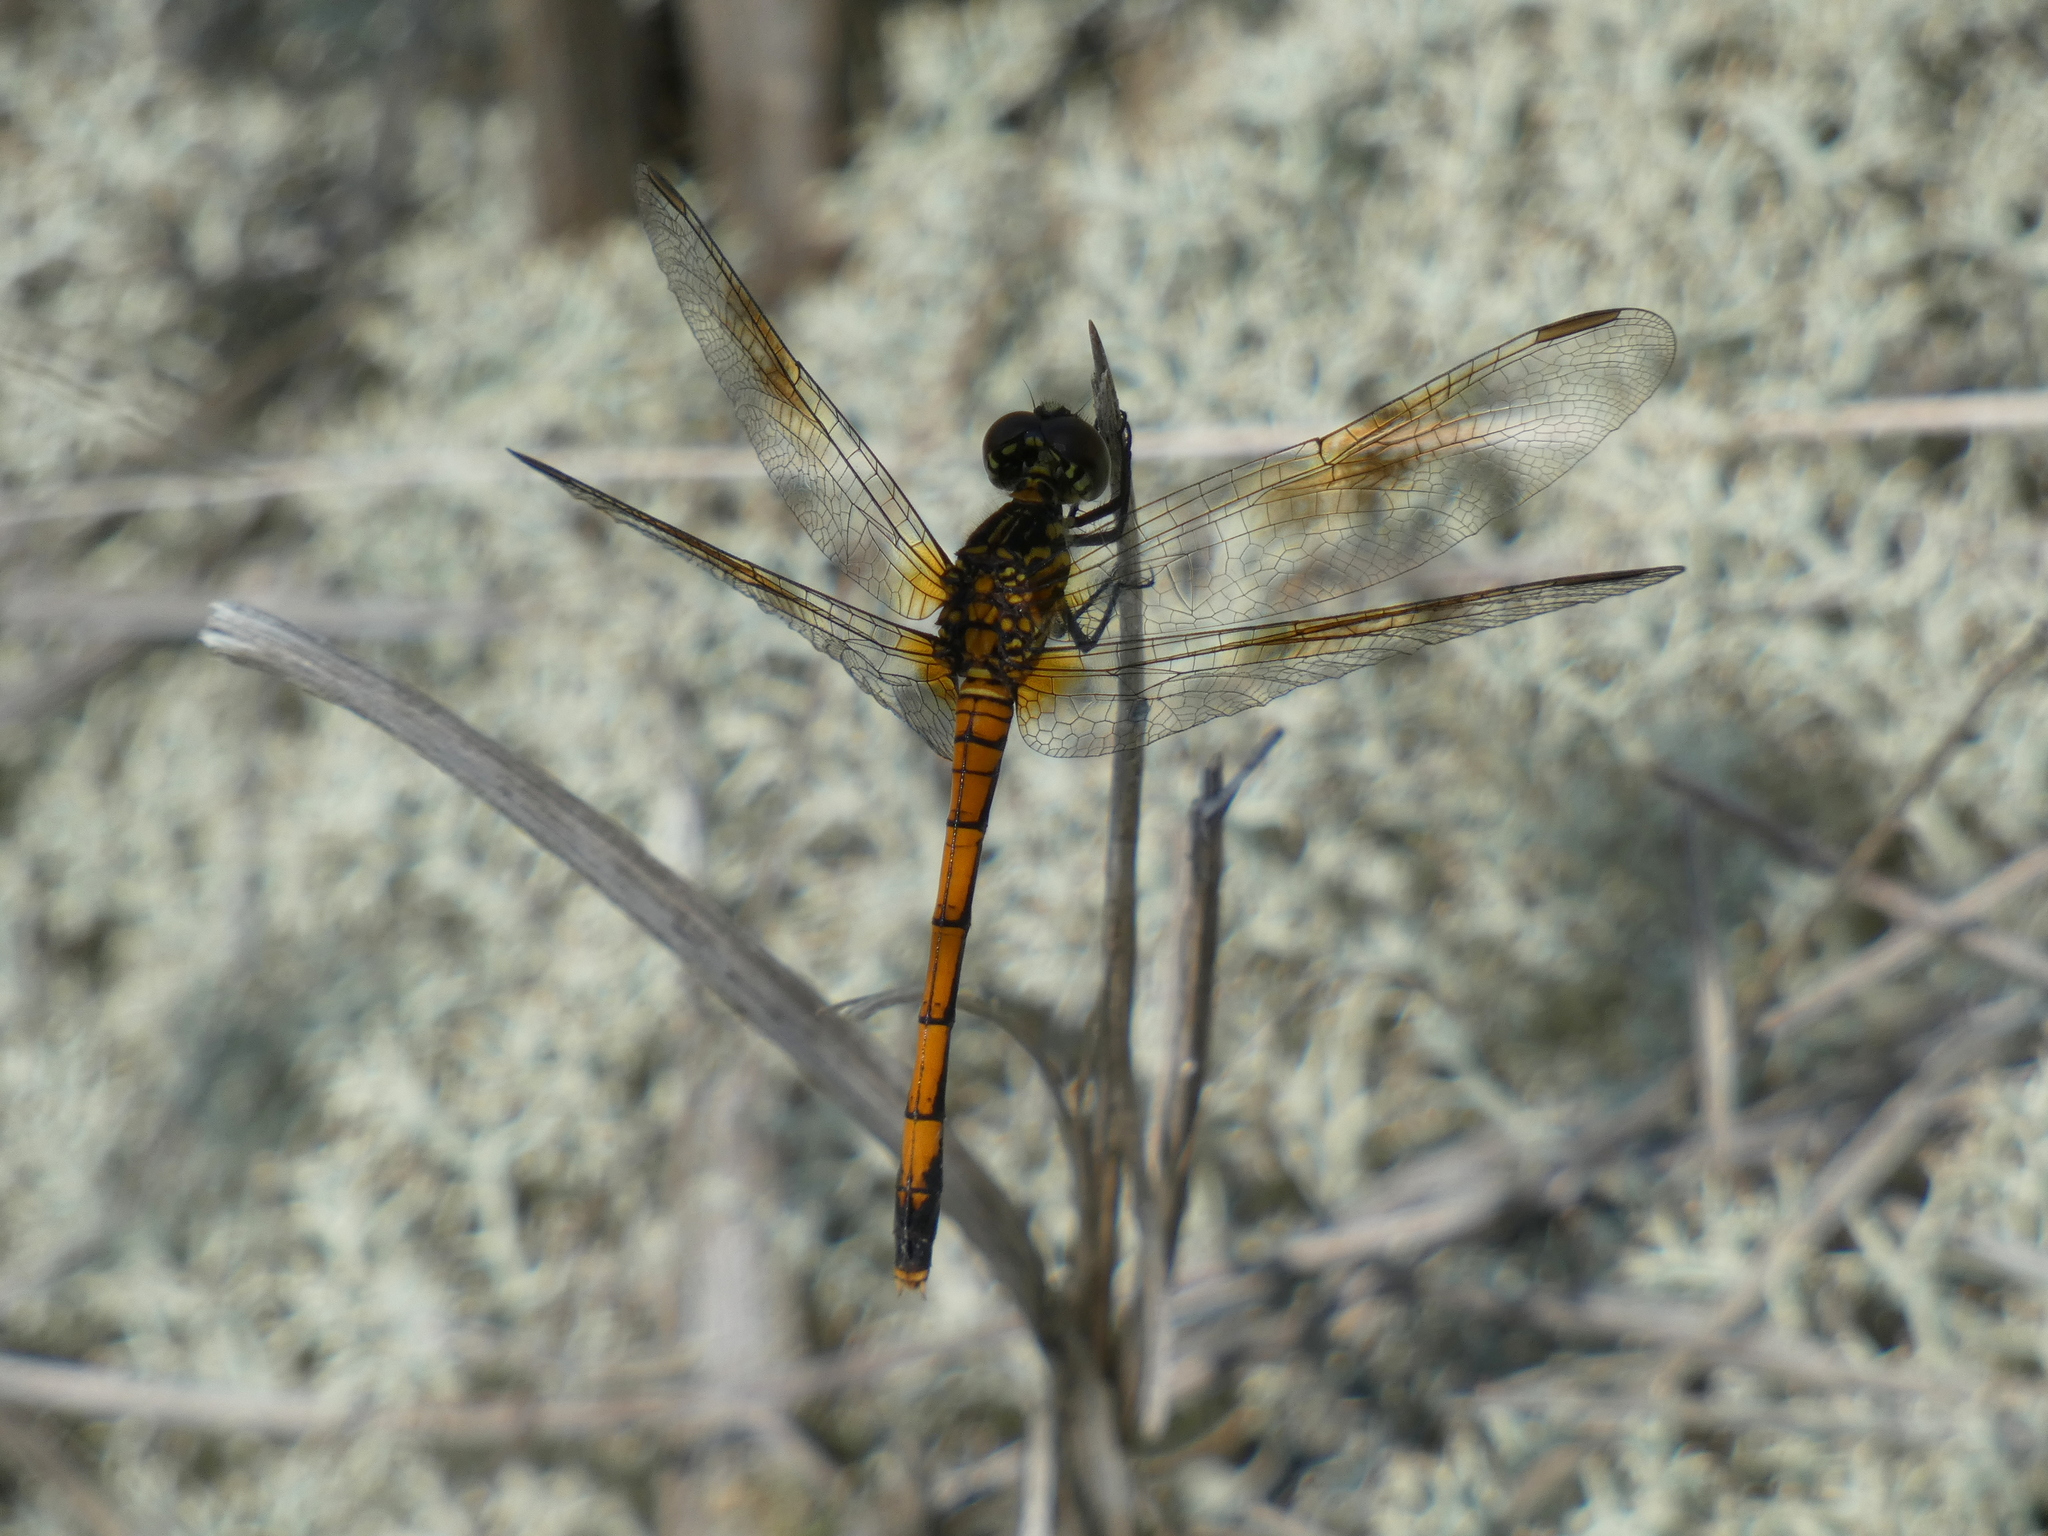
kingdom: Animalia
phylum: Arthropoda
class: Insecta
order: Odonata
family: Libellulidae
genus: Erythrodiplax
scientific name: Erythrodiplax berenice
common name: Seaside dragonlet
